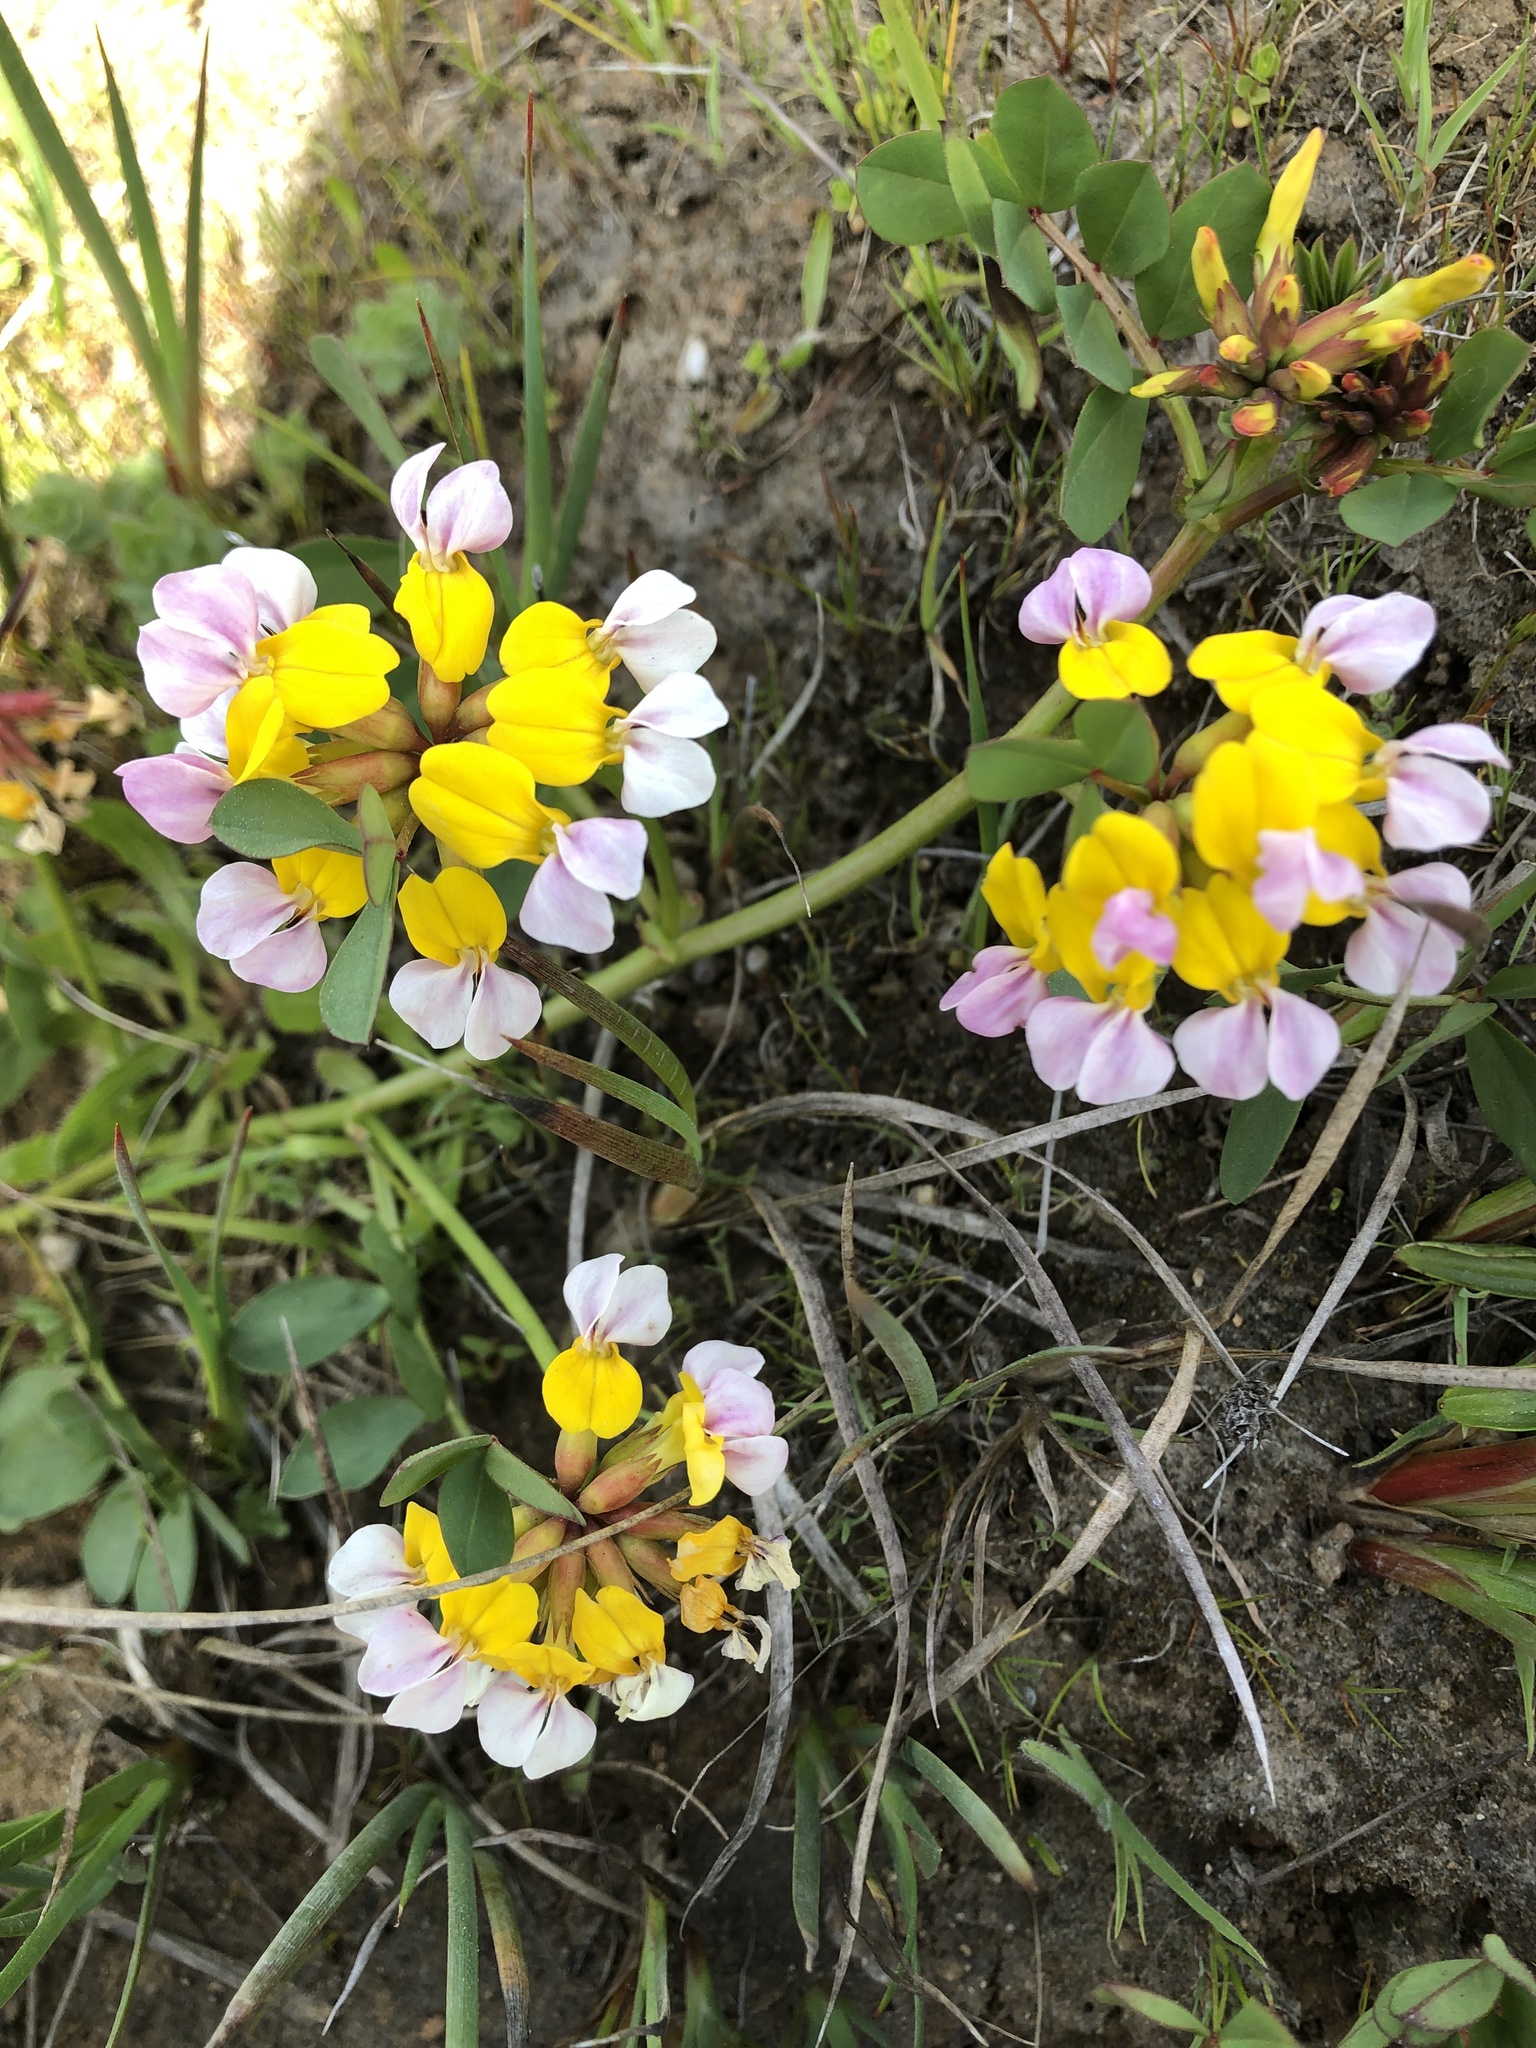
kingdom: Plantae
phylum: Tracheophyta
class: Magnoliopsida
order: Fabales
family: Fabaceae
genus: Hosackia
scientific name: Hosackia gracilis
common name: Seaside bird's-foot lotus
